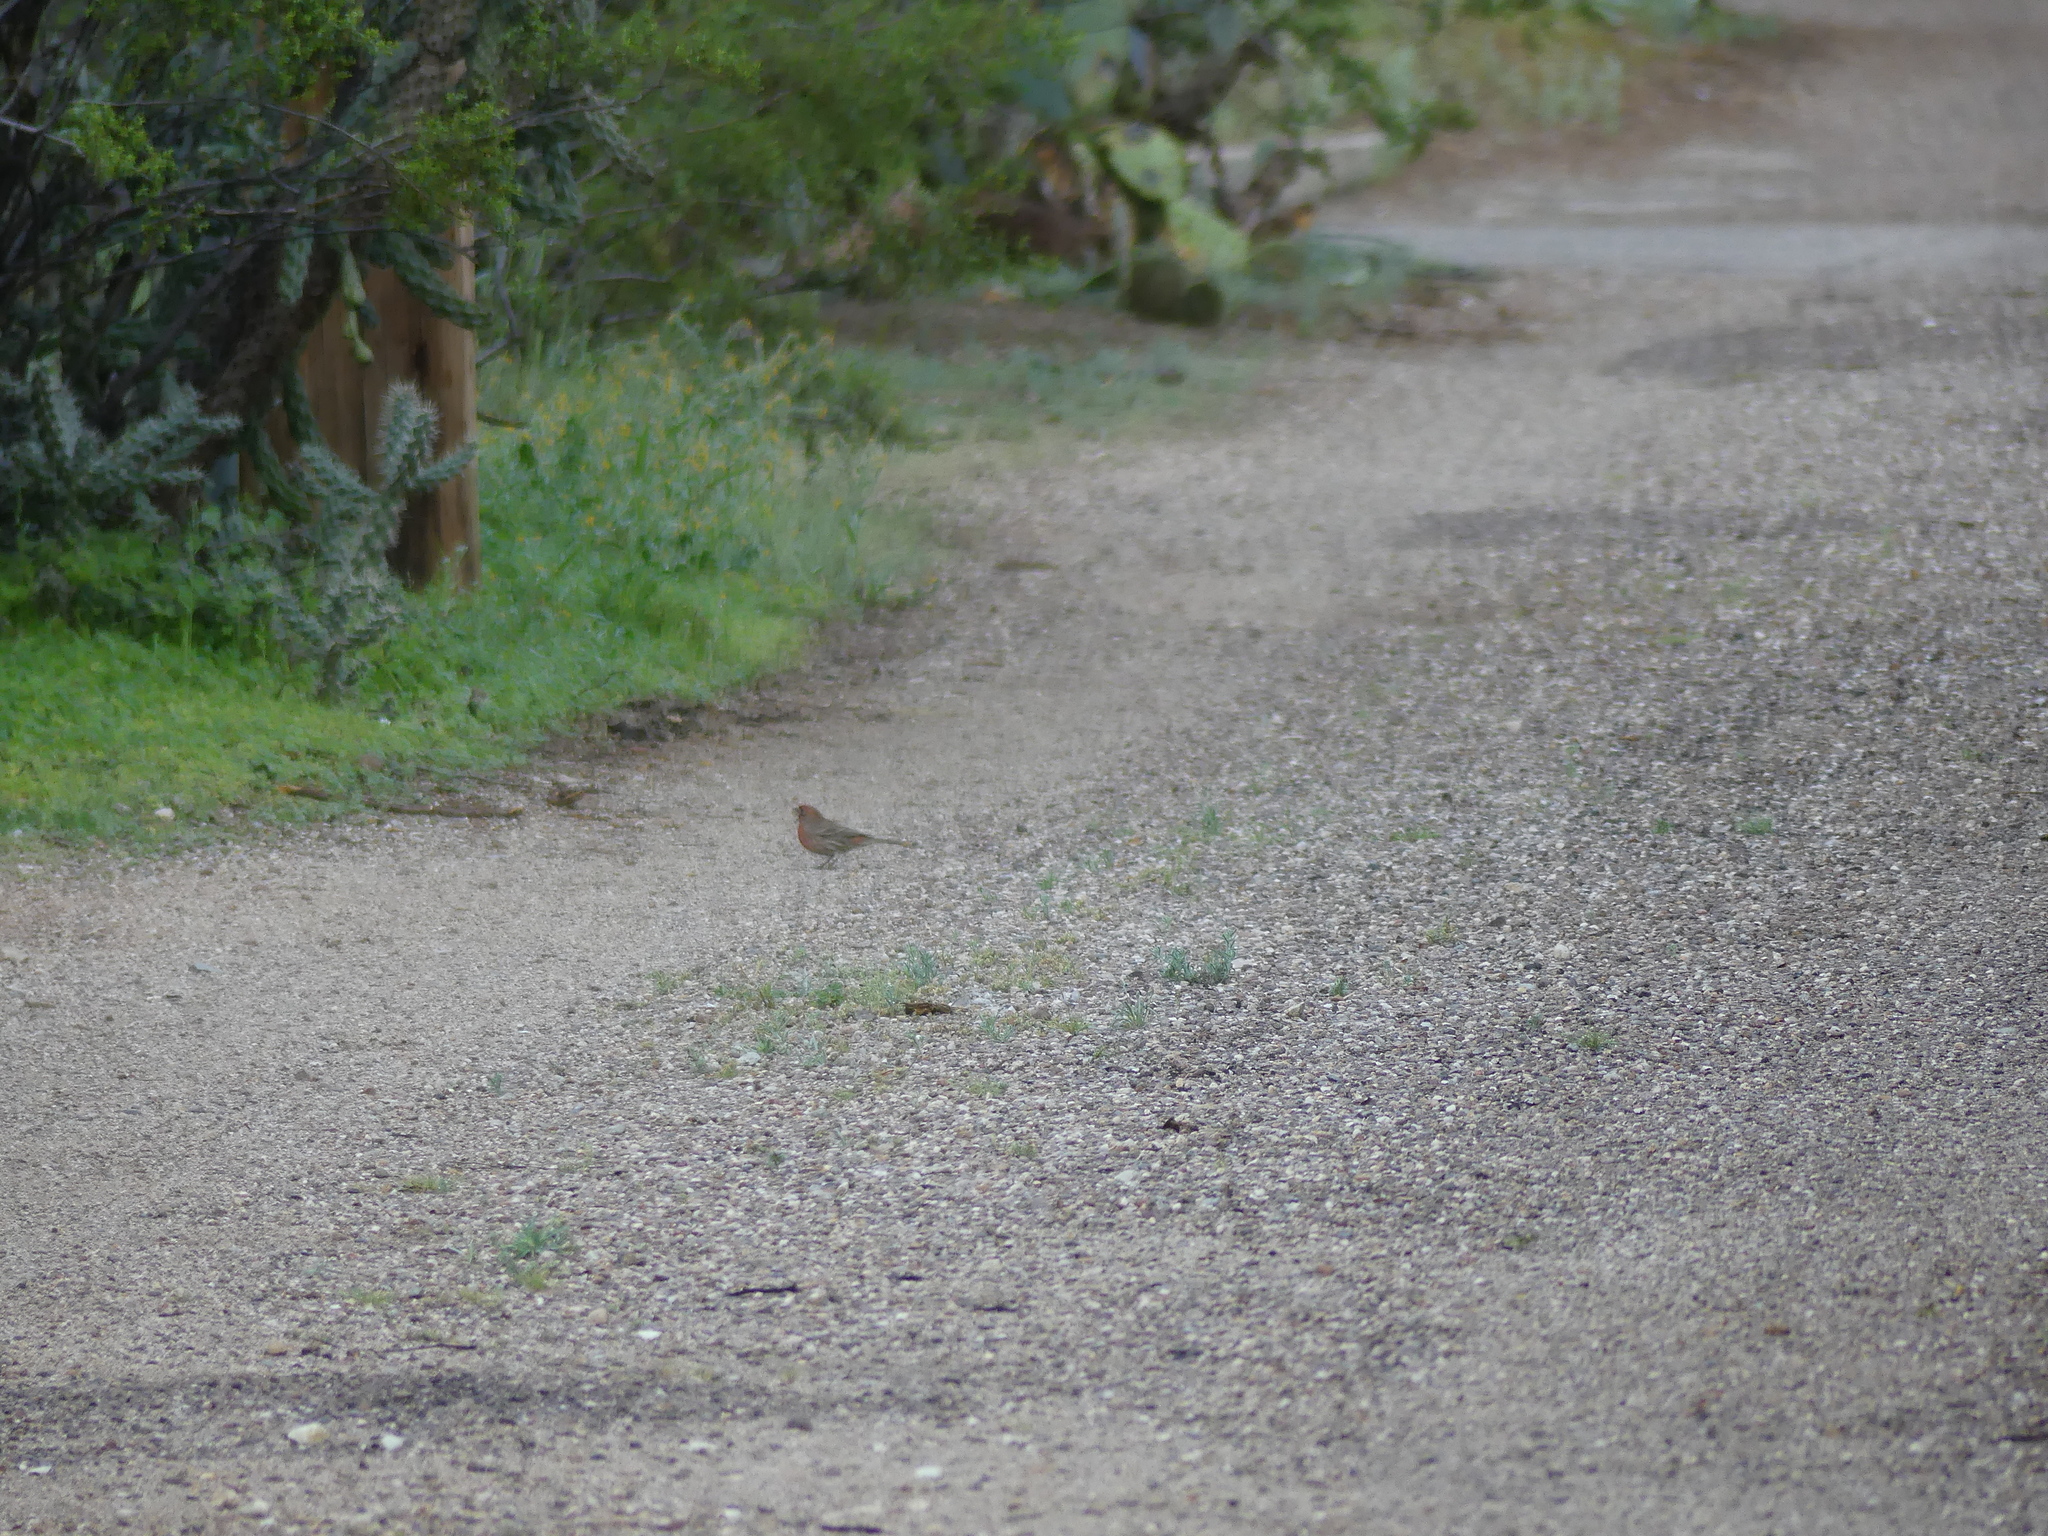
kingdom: Animalia
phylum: Chordata
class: Aves
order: Passeriformes
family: Fringillidae
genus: Haemorhous
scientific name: Haemorhous mexicanus
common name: House finch
